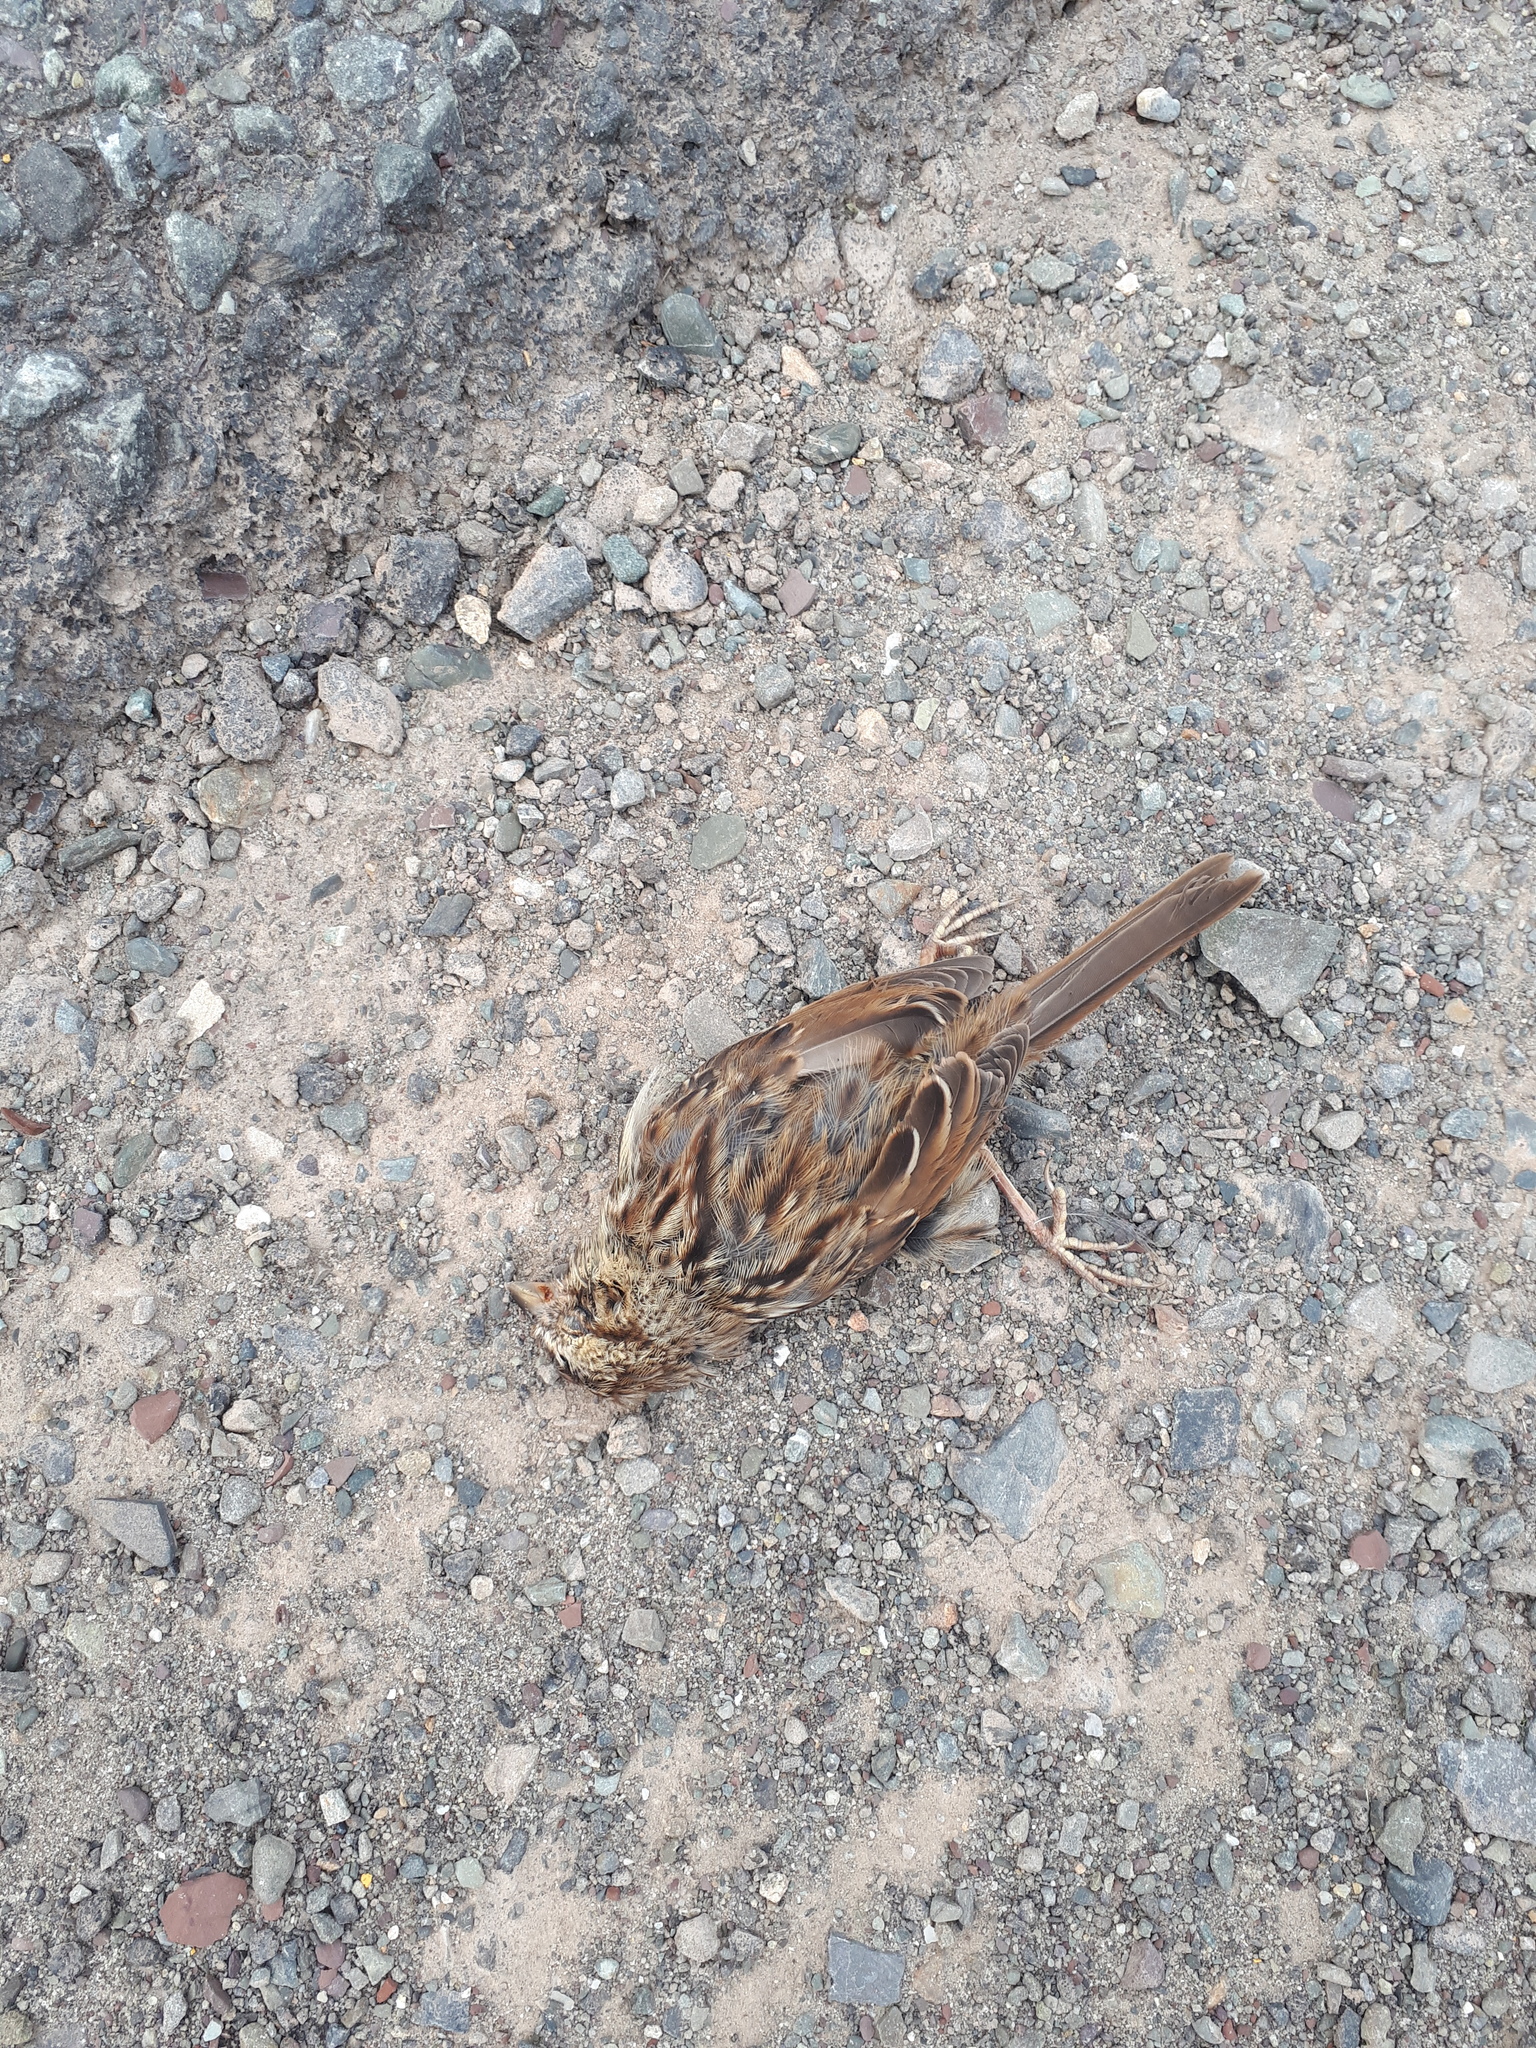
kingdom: Animalia
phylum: Chordata
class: Aves
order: Passeriformes
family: Passerellidae
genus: Melospiza
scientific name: Melospiza melodia
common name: Song sparrow
